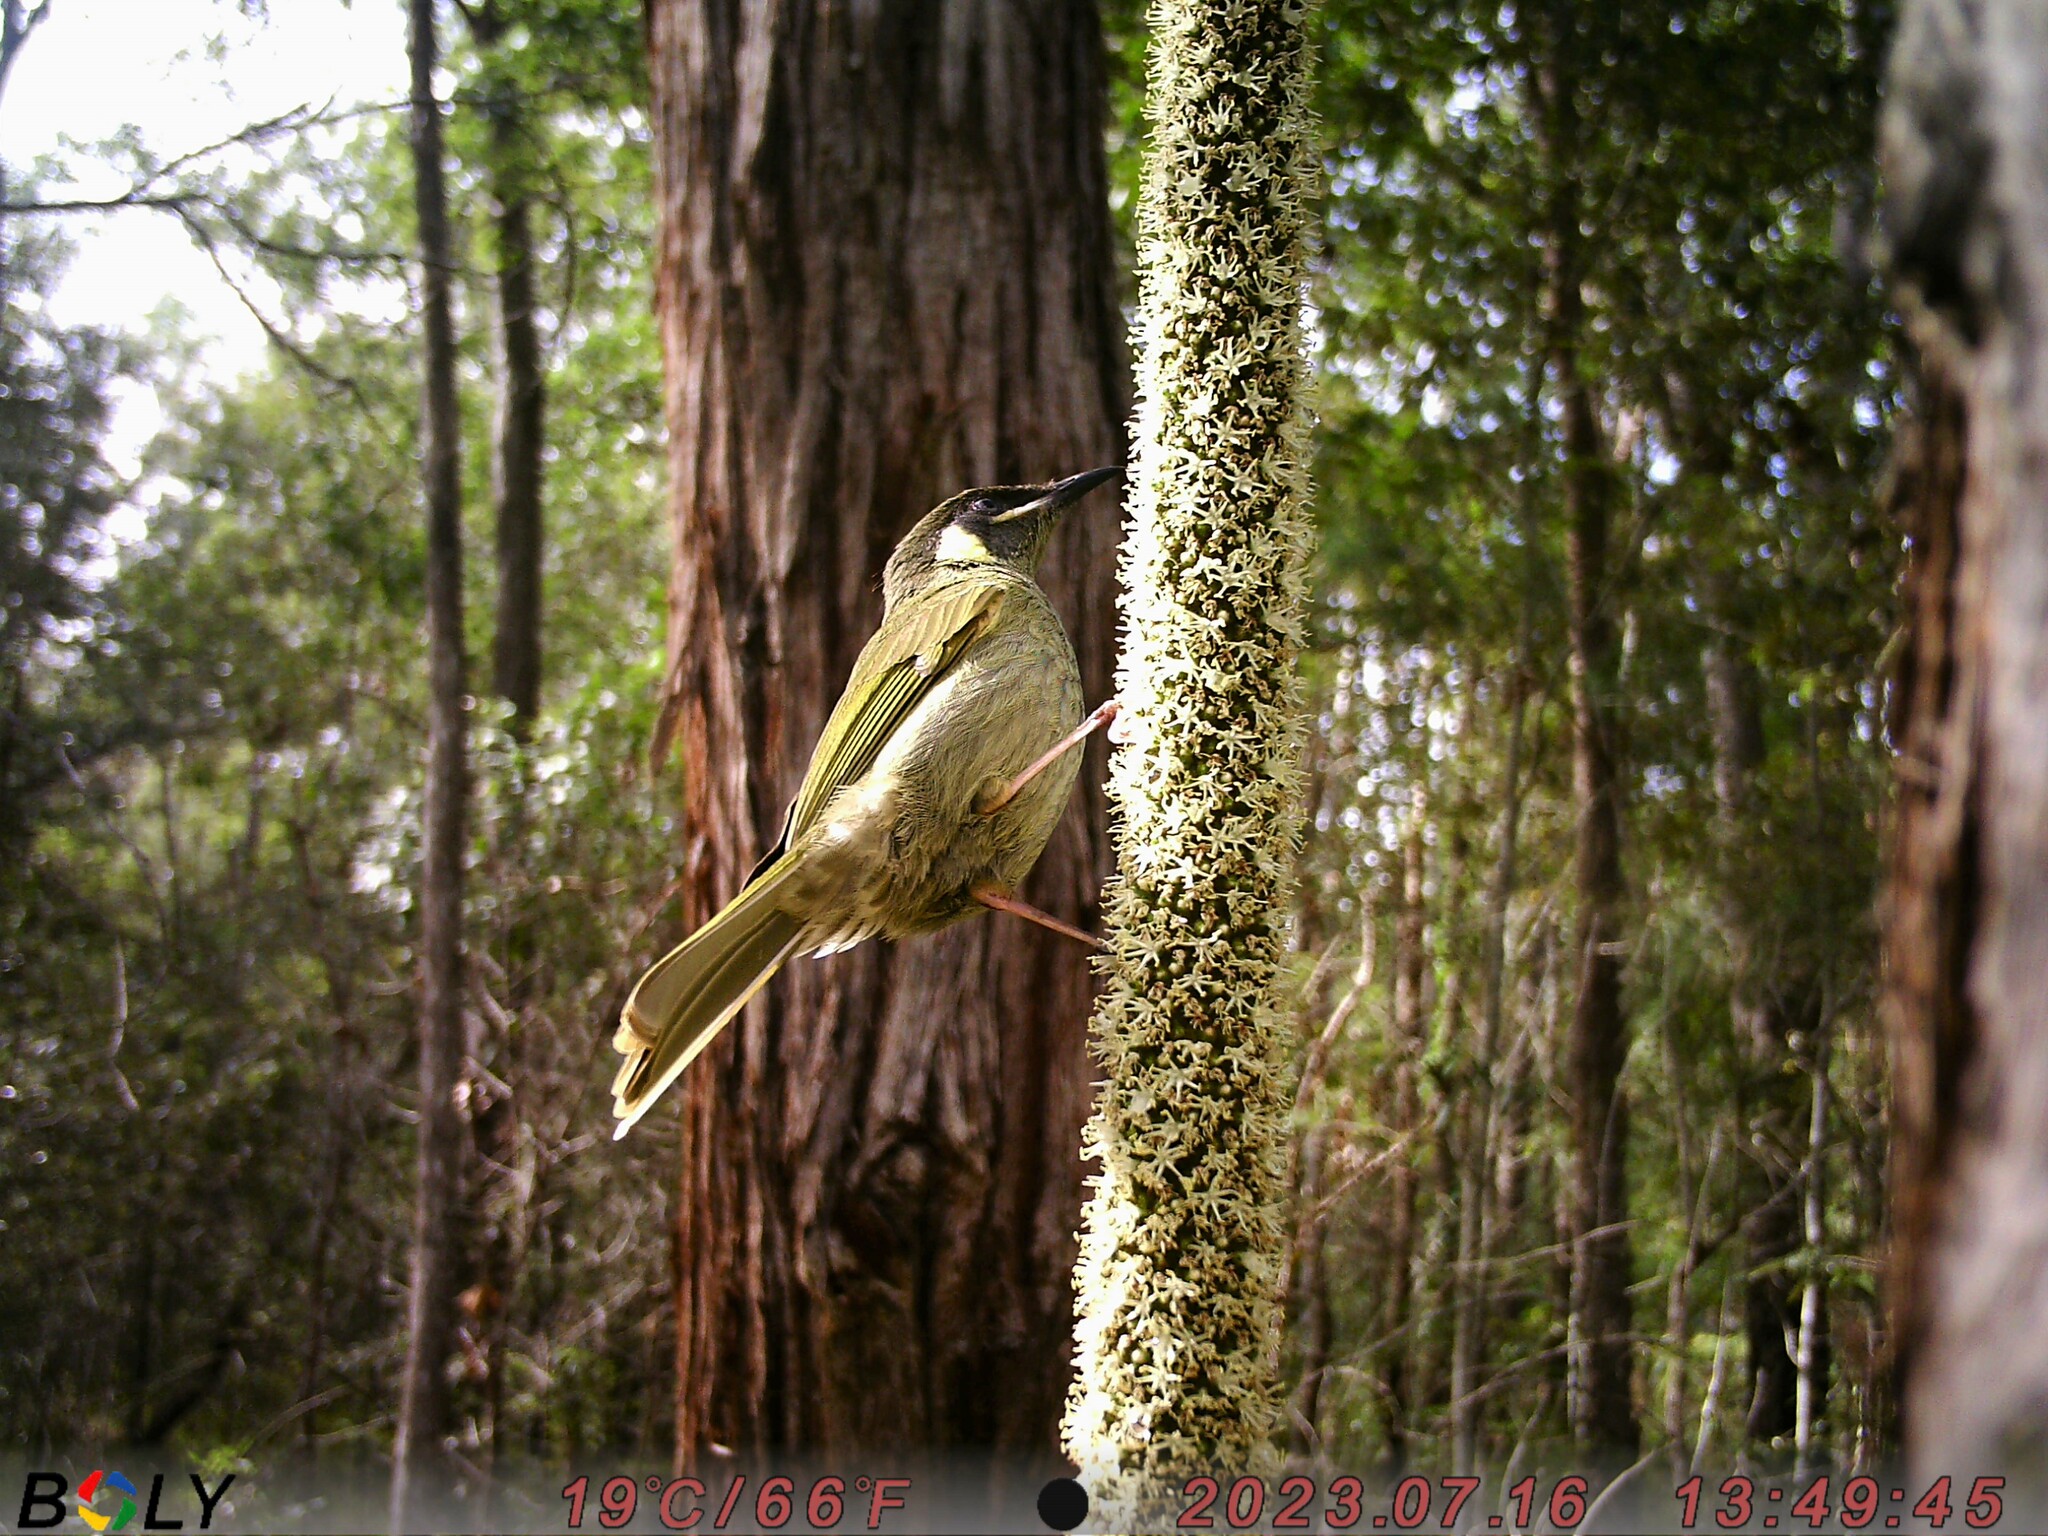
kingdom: Animalia
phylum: Chordata
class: Aves
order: Passeriformes
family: Meliphagidae
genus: Meliphaga
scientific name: Meliphaga lewinii
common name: Lewin's honeyeater
